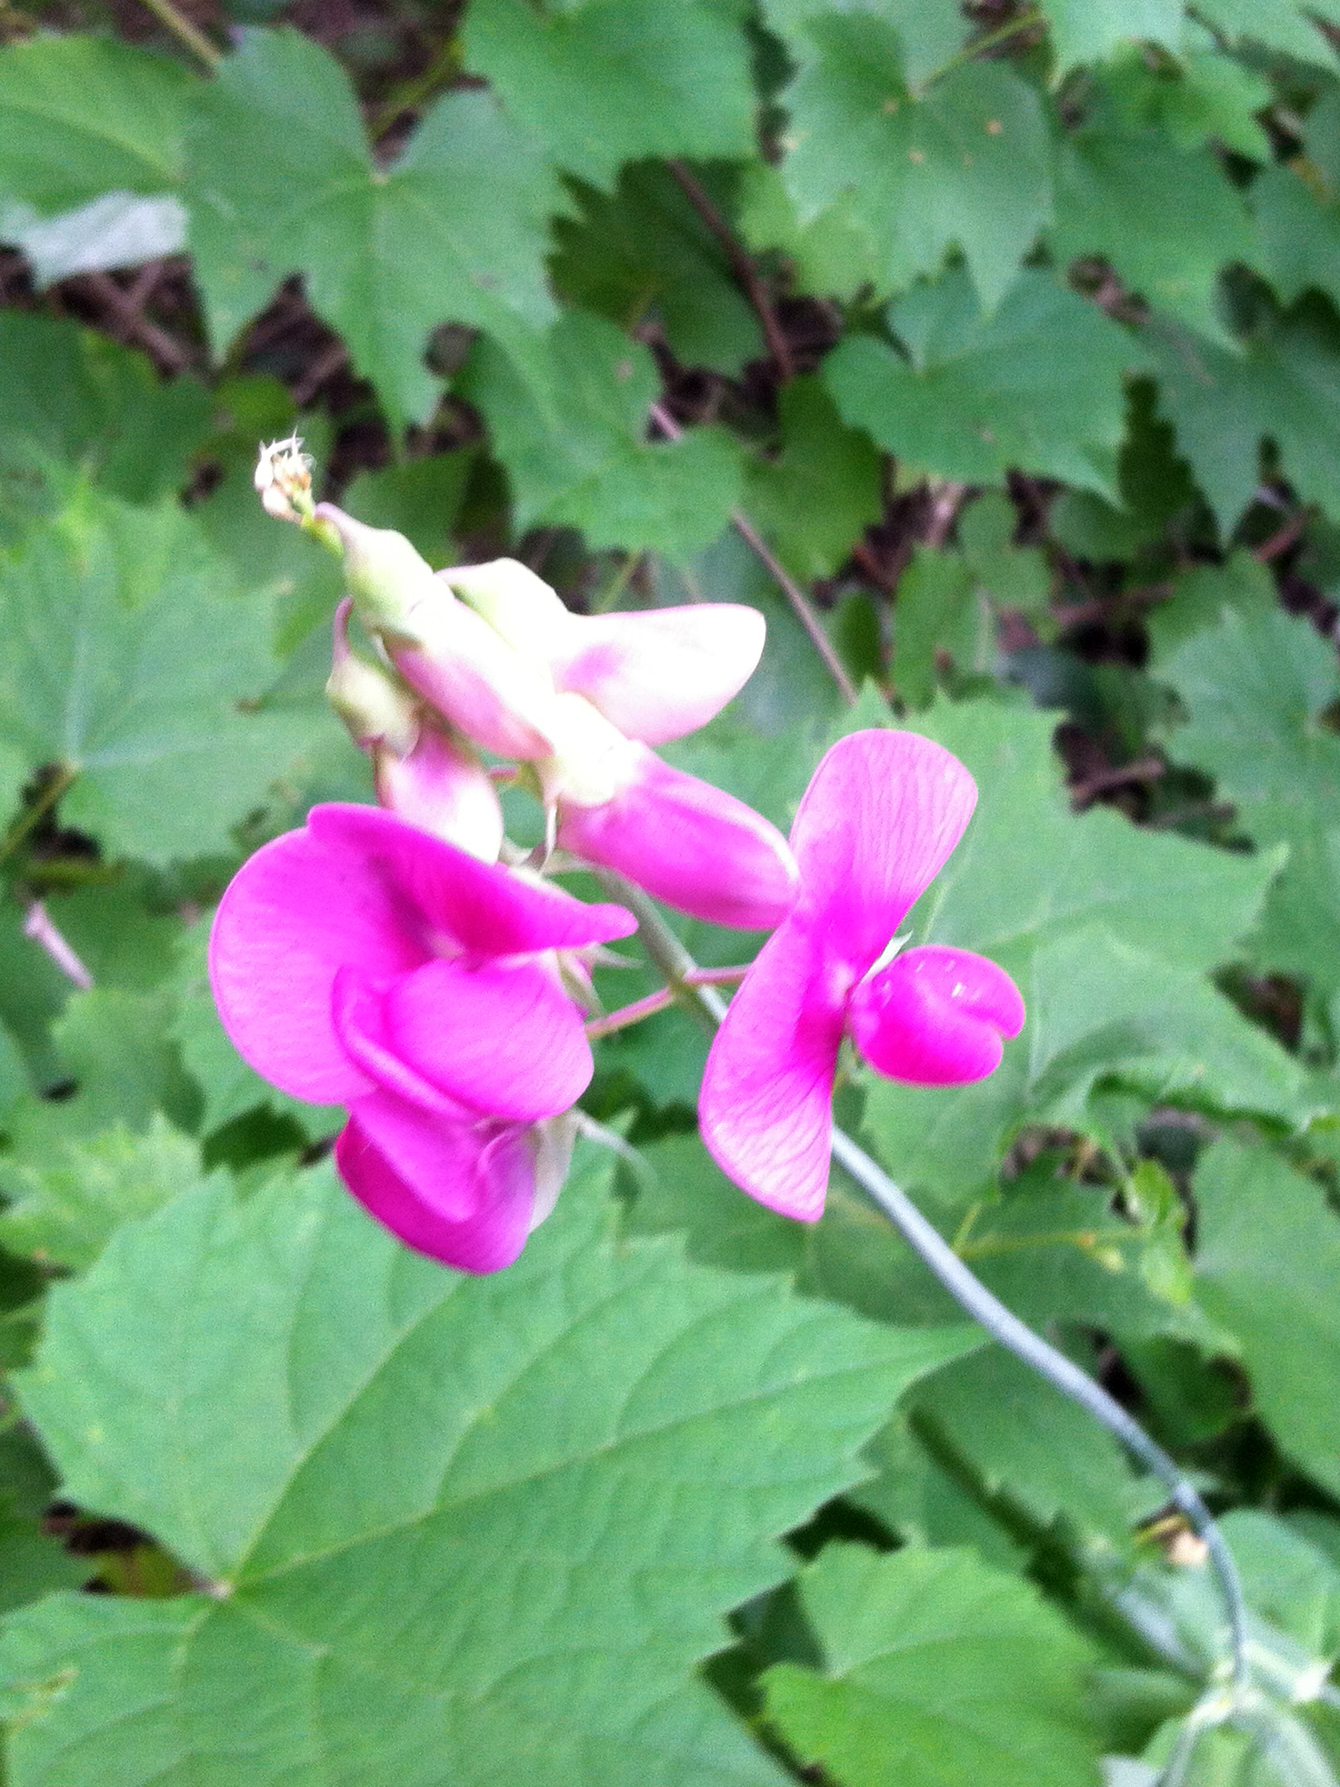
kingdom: Plantae
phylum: Tracheophyta
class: Magnoliopsida
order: Fabales
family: Fabaceae
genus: Lathyrus
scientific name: Lathyrus latifolius
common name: Perennial pea
